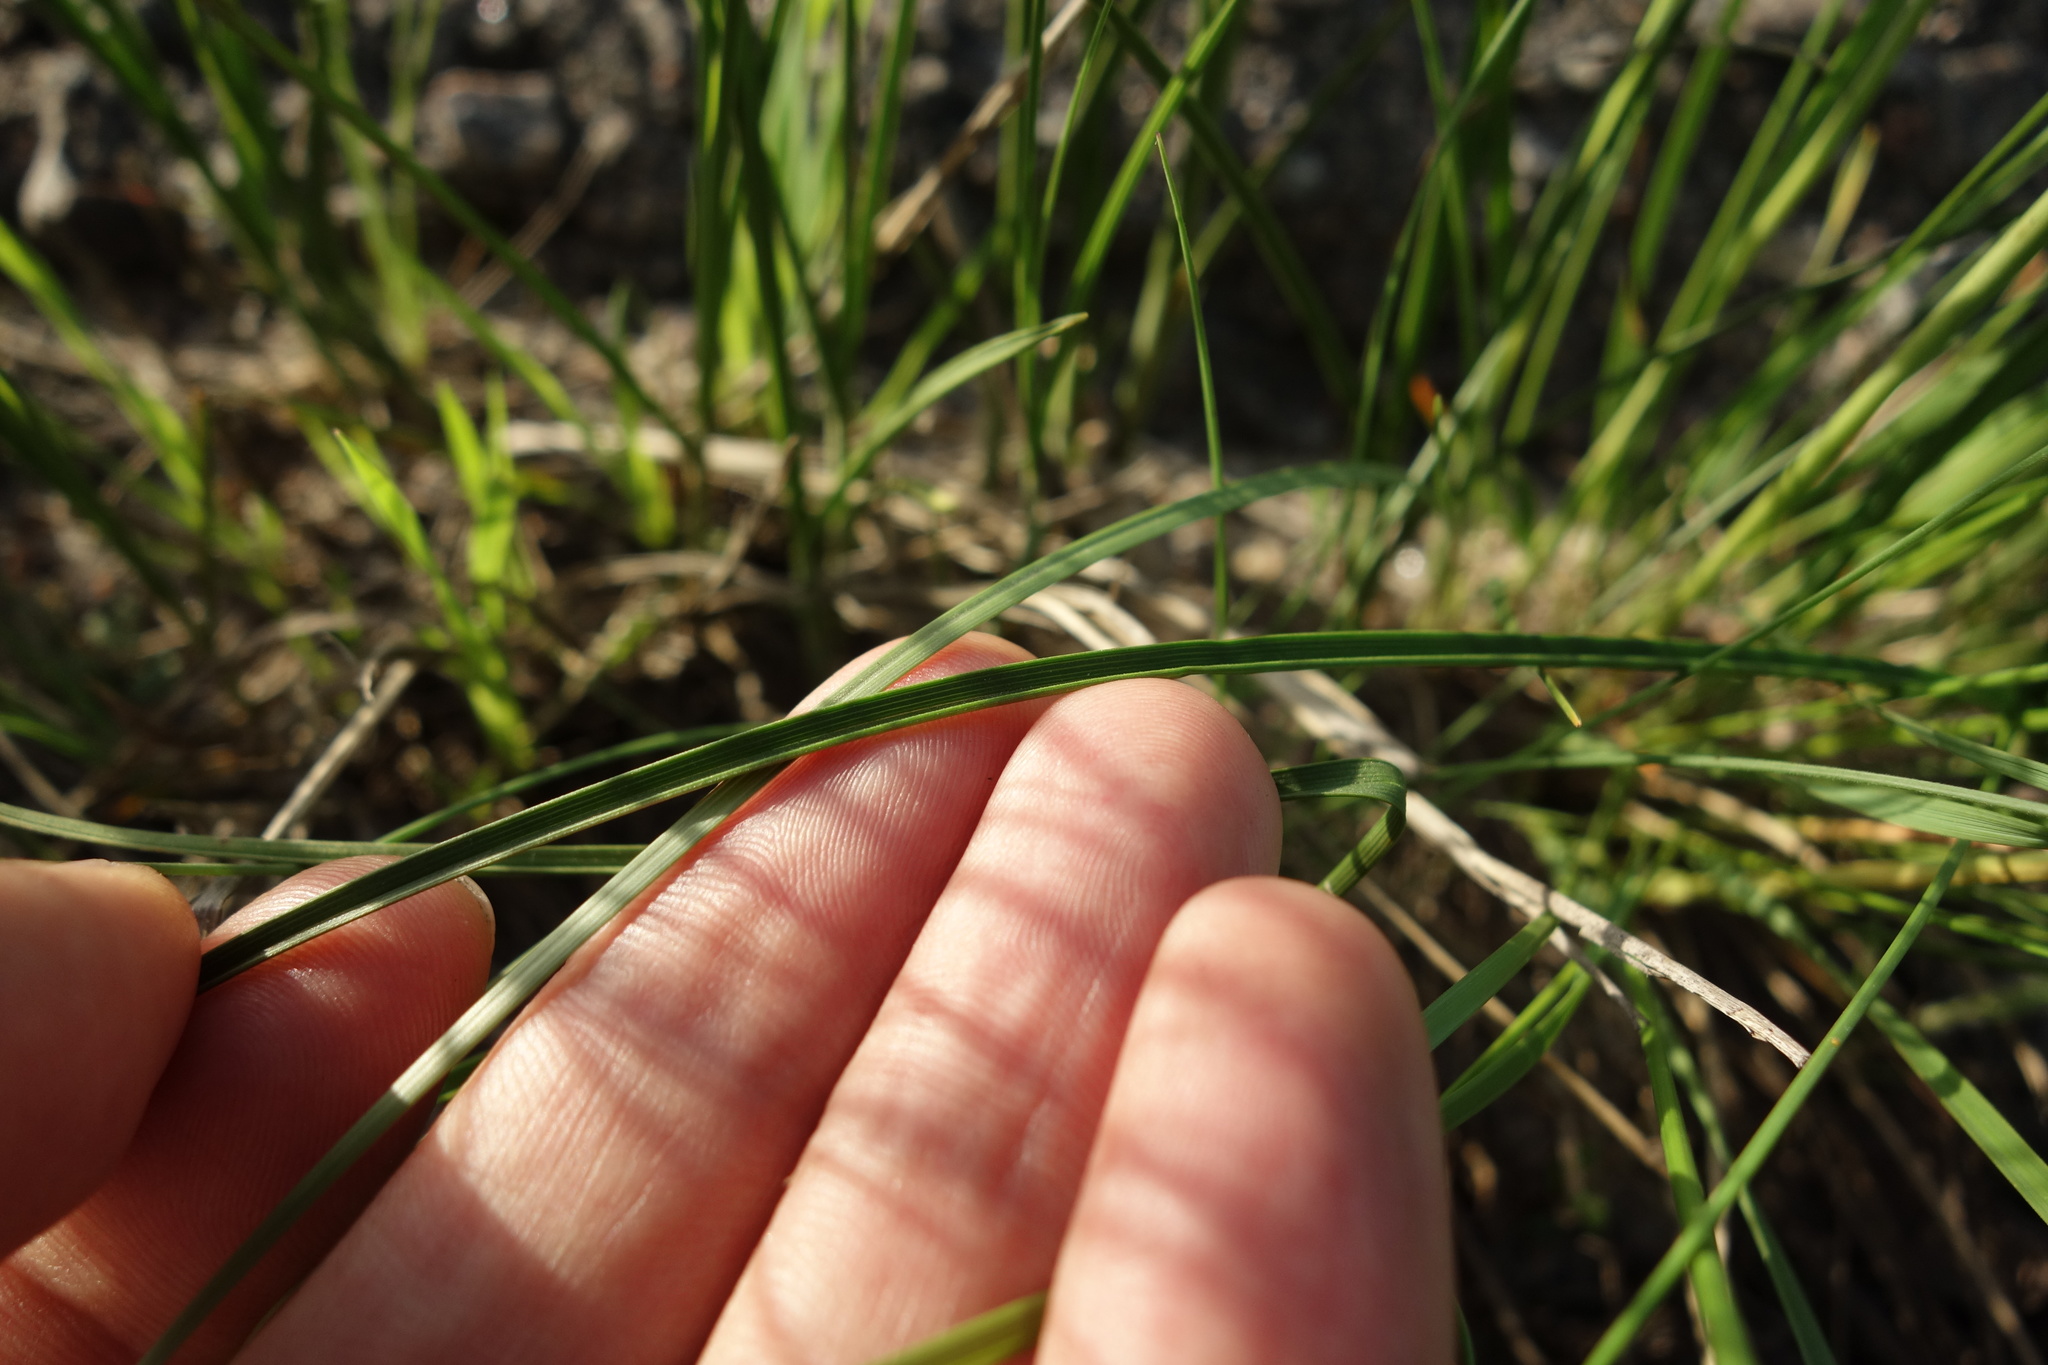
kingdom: Plantae
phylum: Tracheophyta
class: Liliopsida
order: Poales
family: Poaceae
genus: Stipa
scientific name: Stipa pennata
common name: European feather grass
